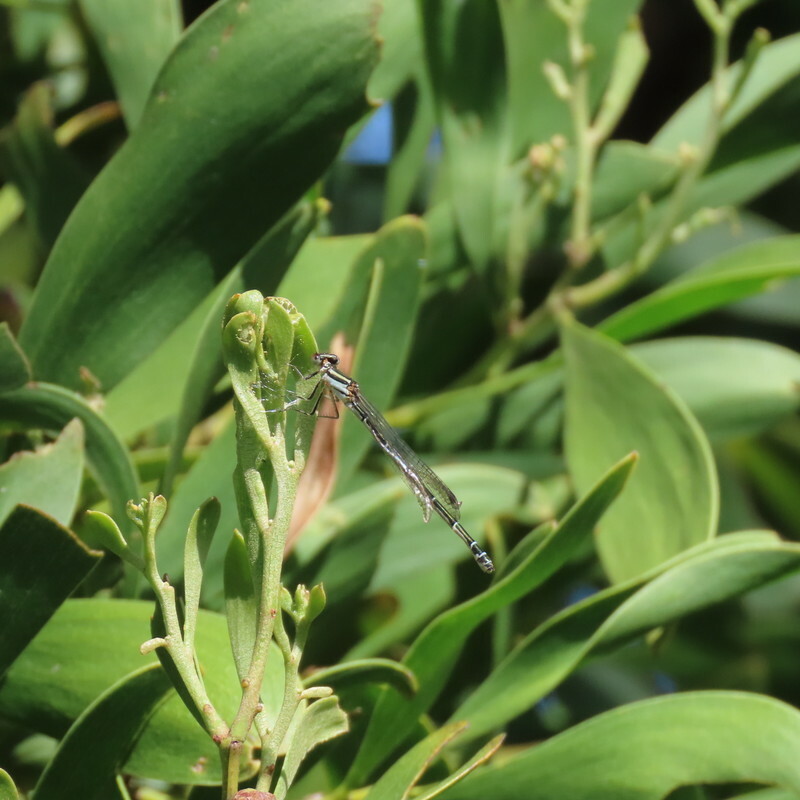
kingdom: Animalia
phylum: Arthropoda
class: Insecta
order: Odonata
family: Coenagrionidae
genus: Austroagrion
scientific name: Austroagrion watsoni
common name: Eastern billabongfly
